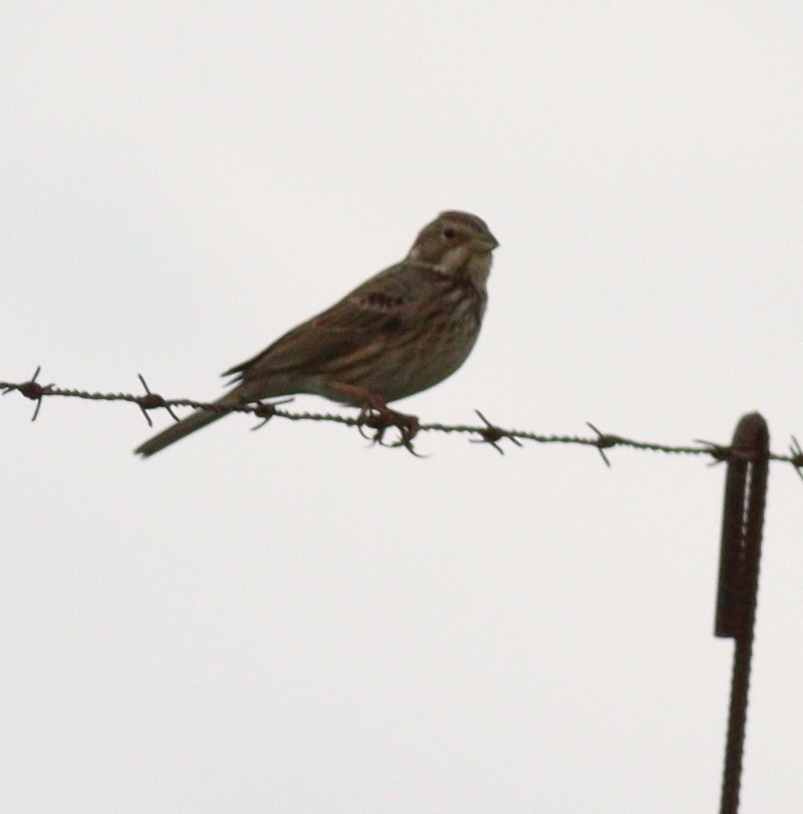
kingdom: Animalia
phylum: Chordata
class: Aves
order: Passeriformes
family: Emberizidae
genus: Emberiza
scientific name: Emberiza calandra
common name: Corn bunting
